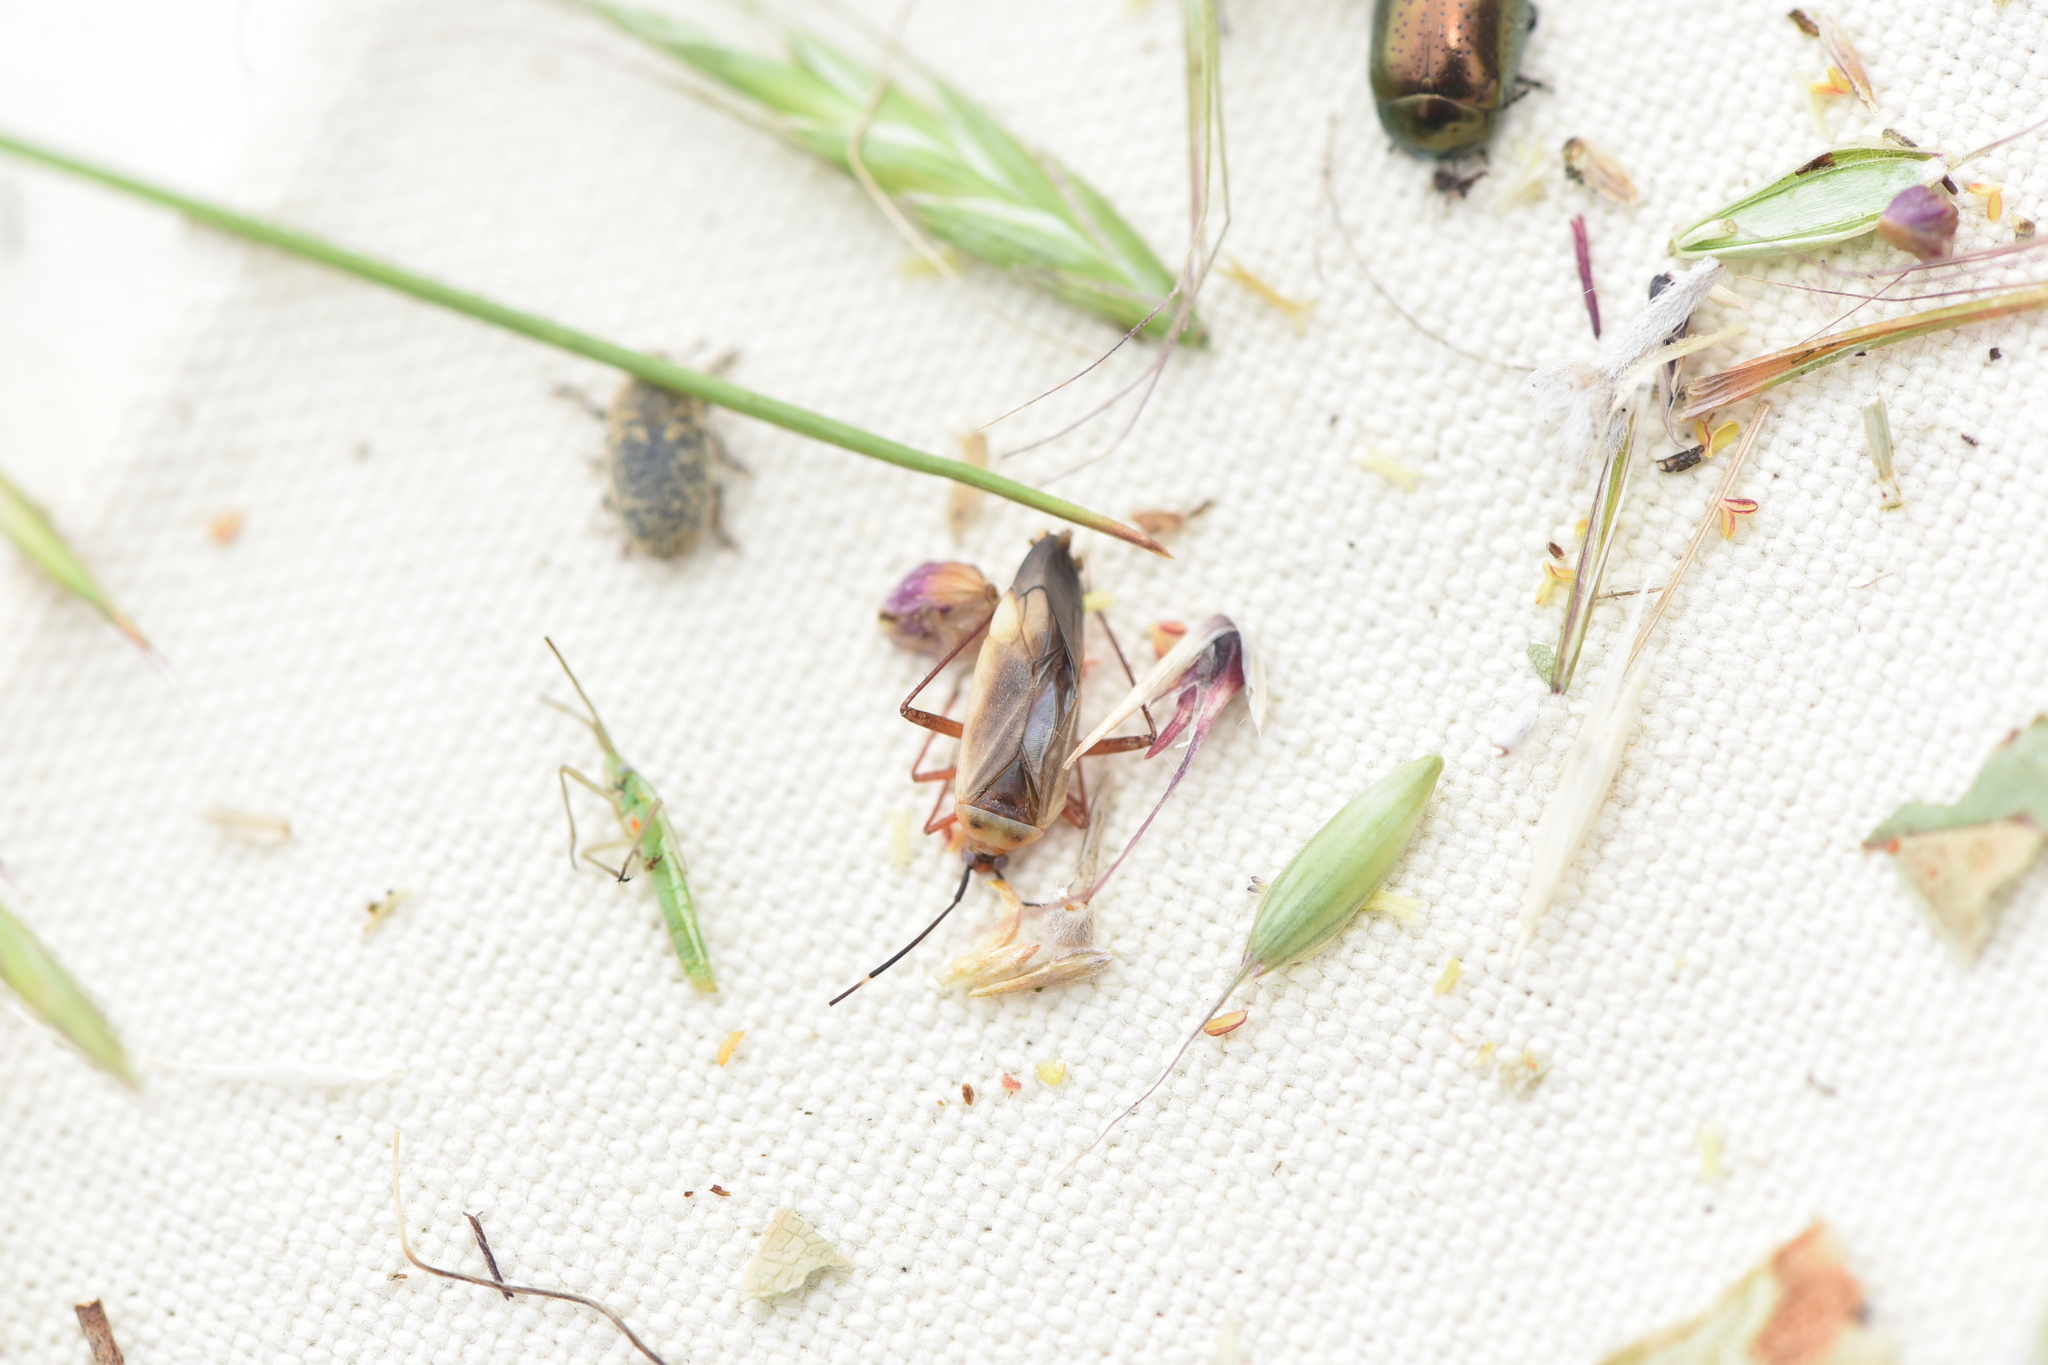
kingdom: Animalia
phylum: Arthropoda
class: Insecta
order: Coleoptera
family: Curculionidae
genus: Larinus
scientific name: Larinus minutus
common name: Weevil
